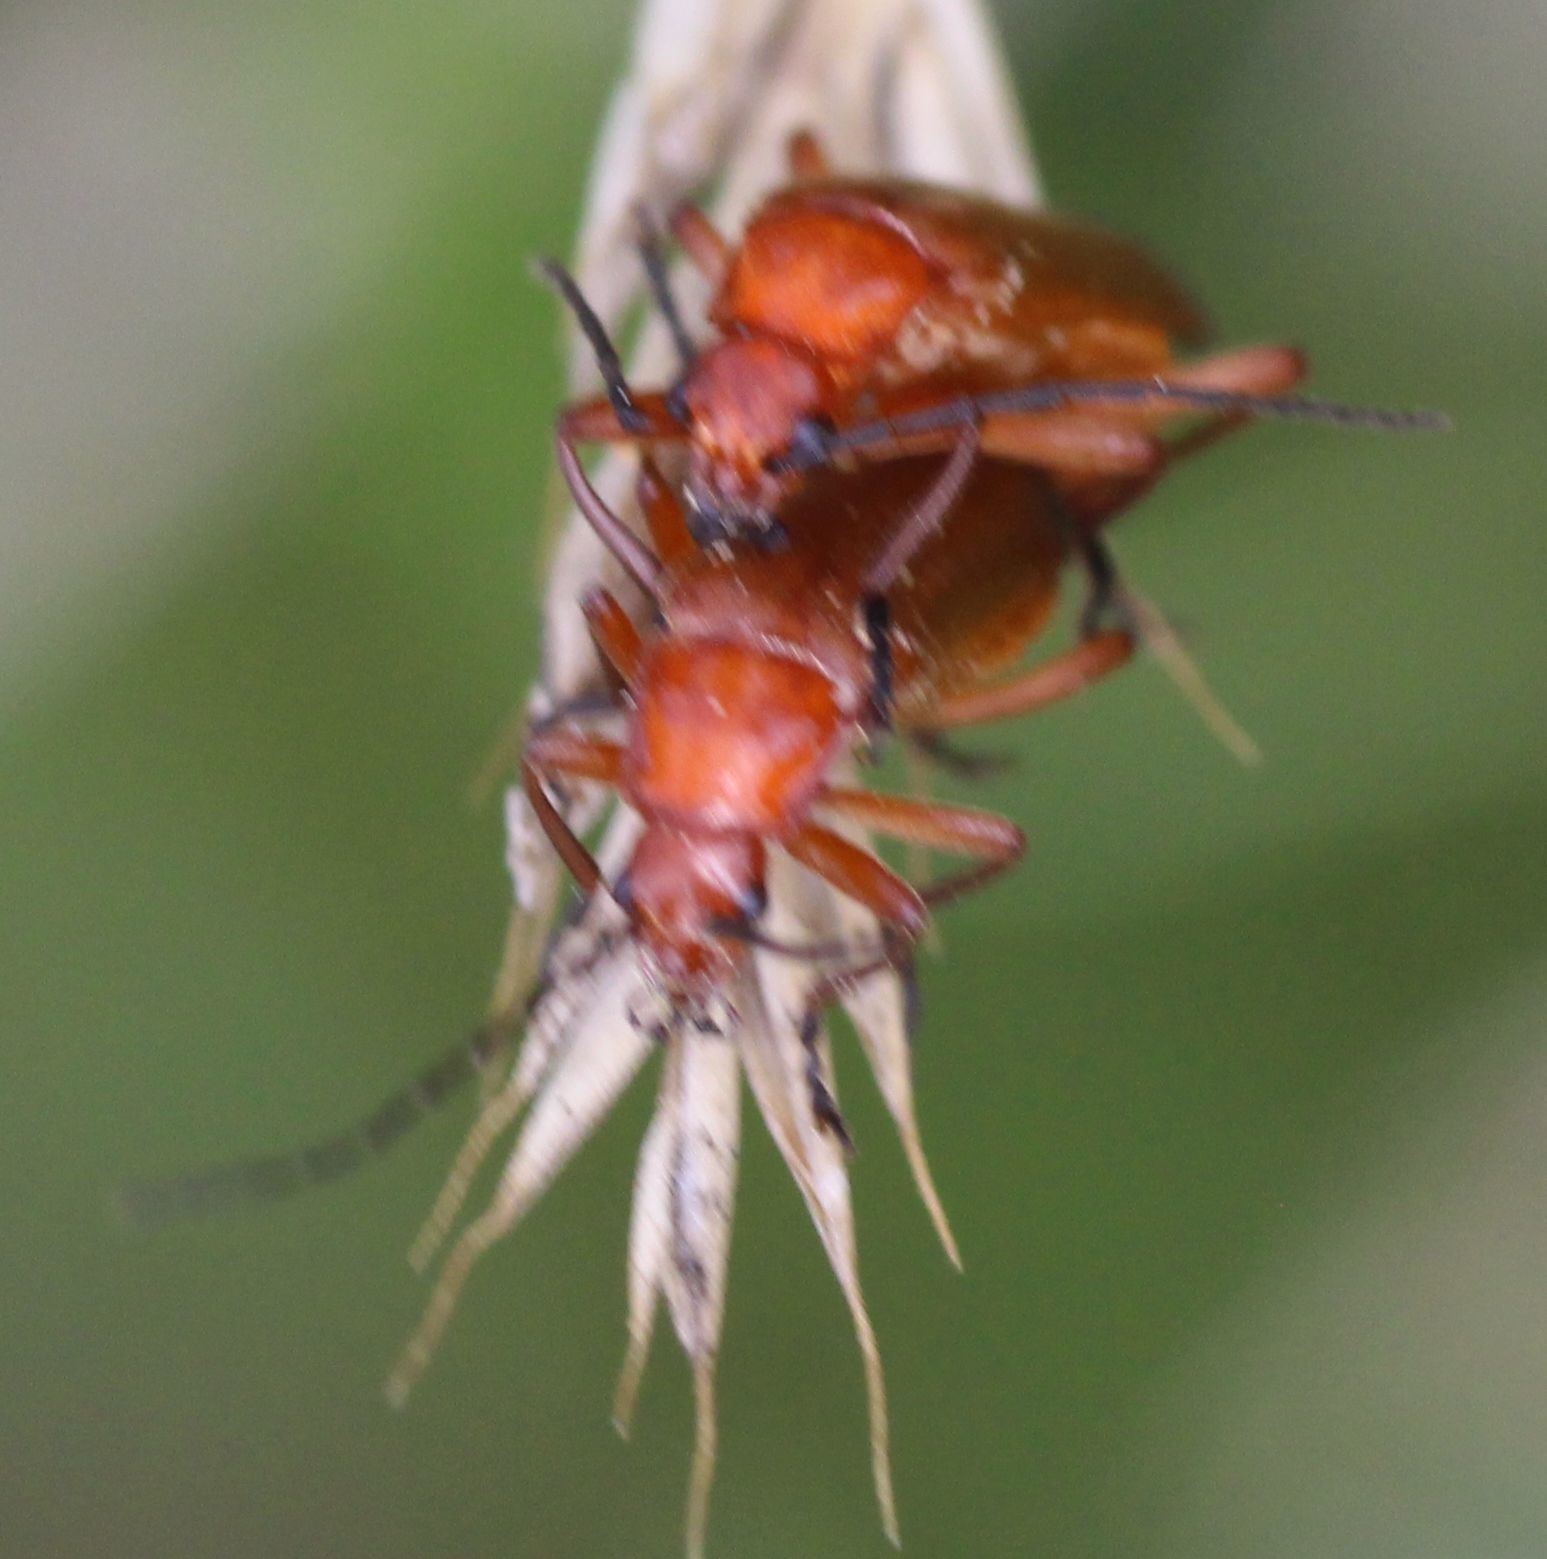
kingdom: Animalia
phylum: Arthropoda
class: Insecta
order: Coleoptera
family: Cantharidae
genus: Rhagonycha
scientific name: Rhagonycha fulva
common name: Common red soldier beetle
